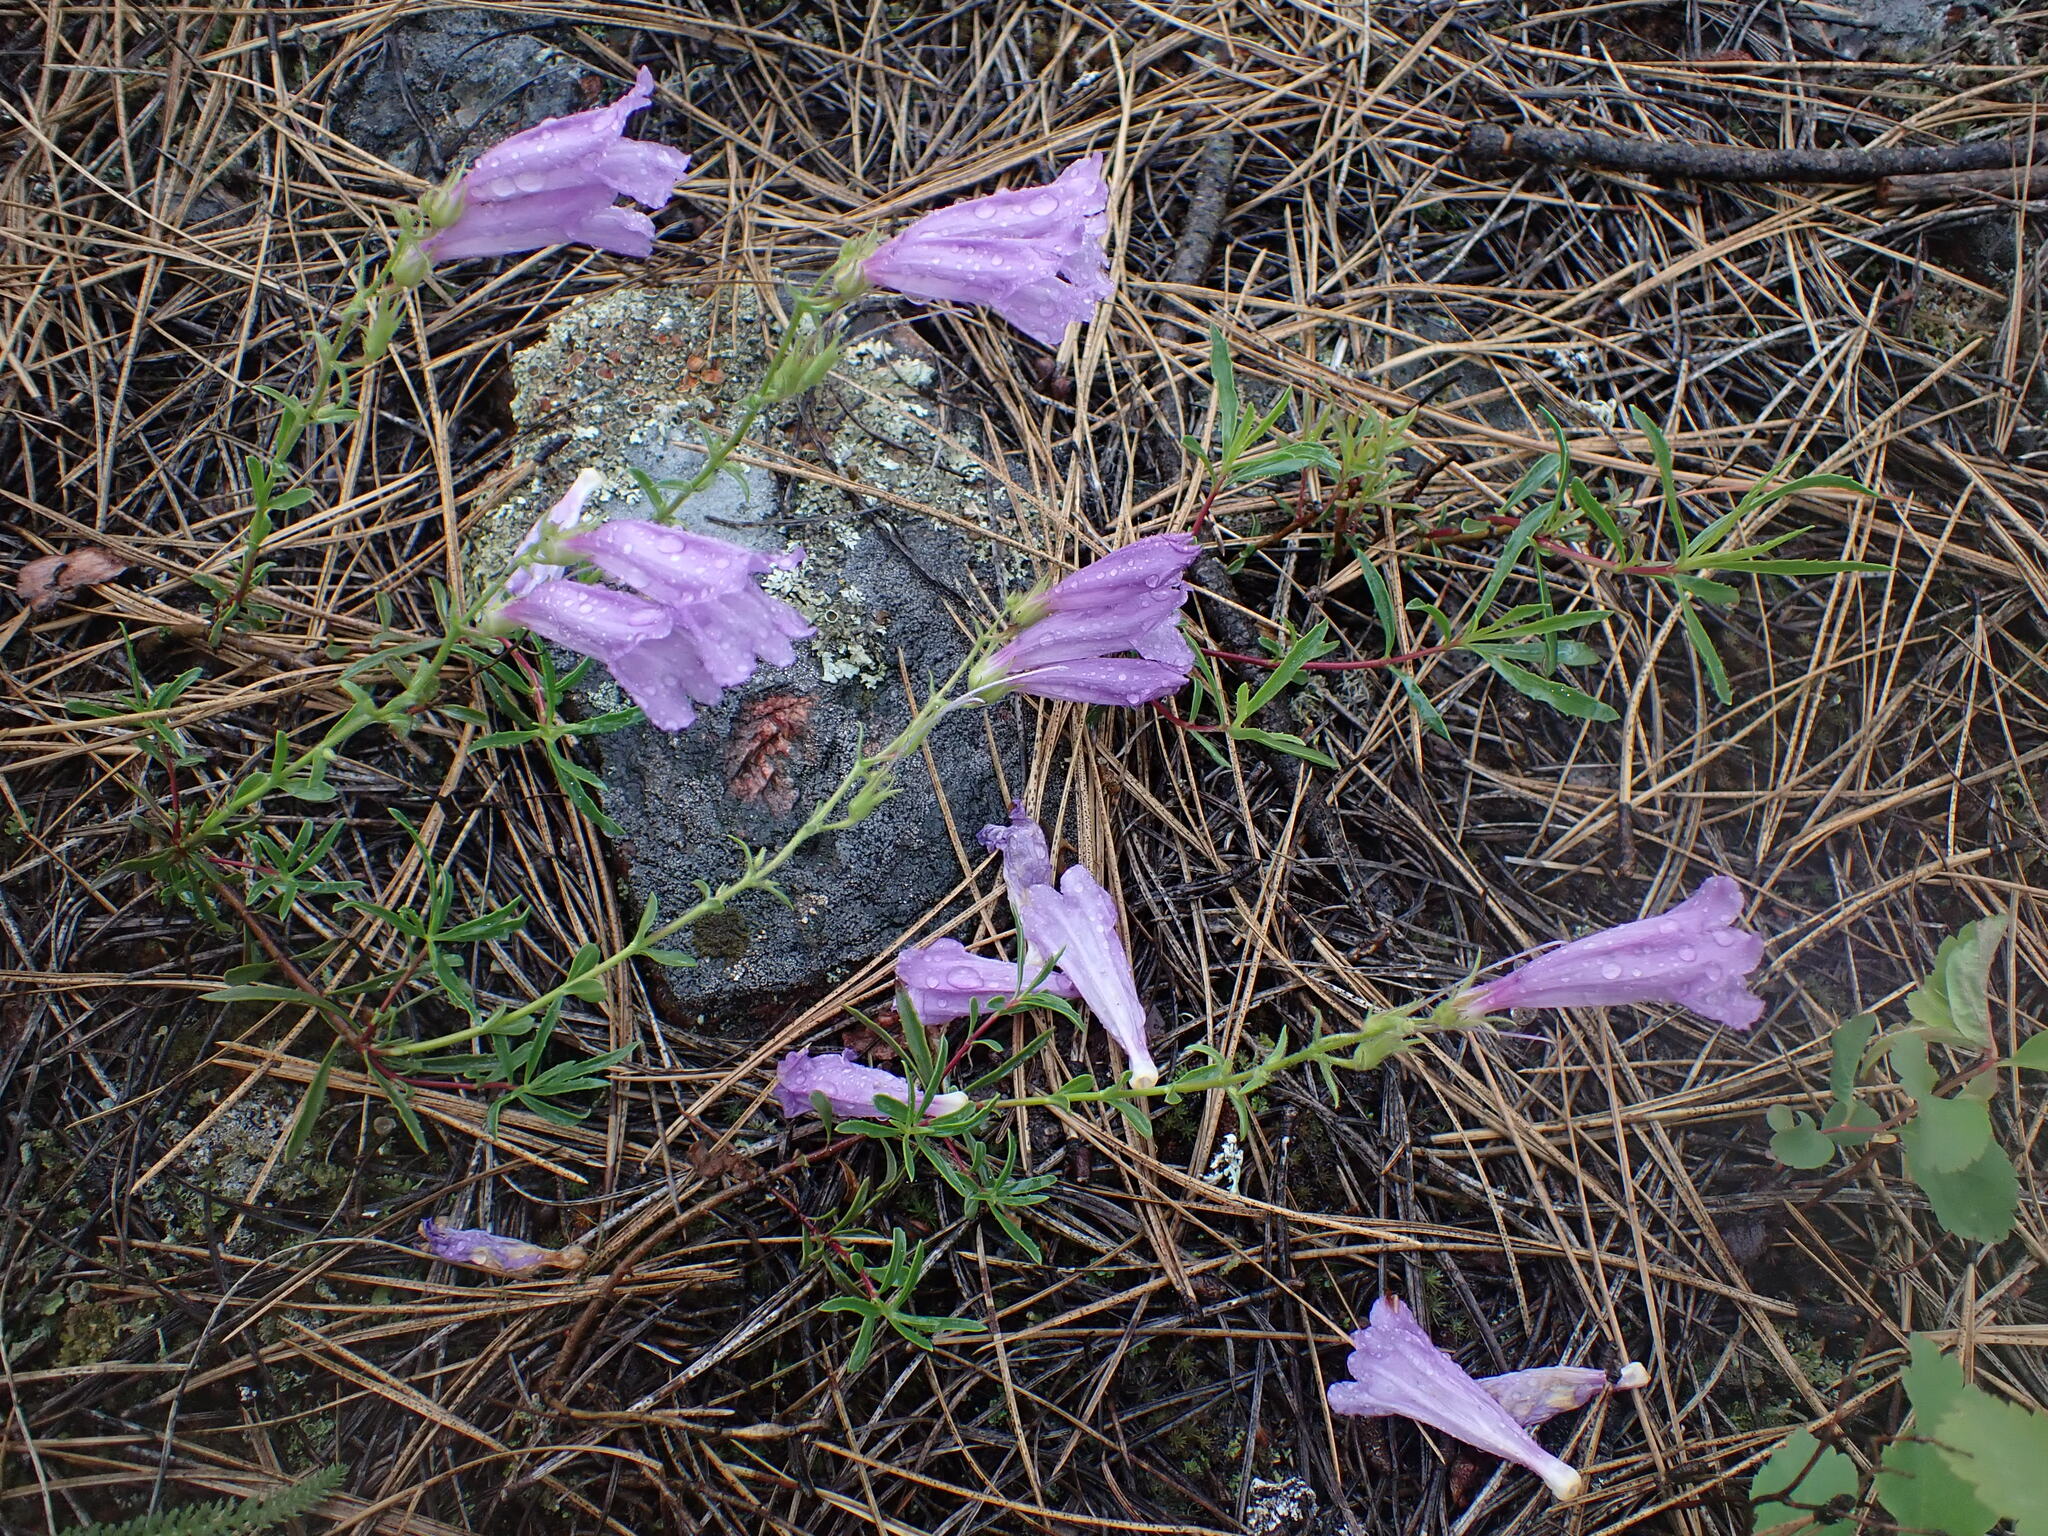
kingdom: Plantae
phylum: Tracheophyta
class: Magnoliopsida
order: Lamiales
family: Plantaginaceae
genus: Penstemon
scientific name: Penstemon fruticosus
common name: Bush penstemon
